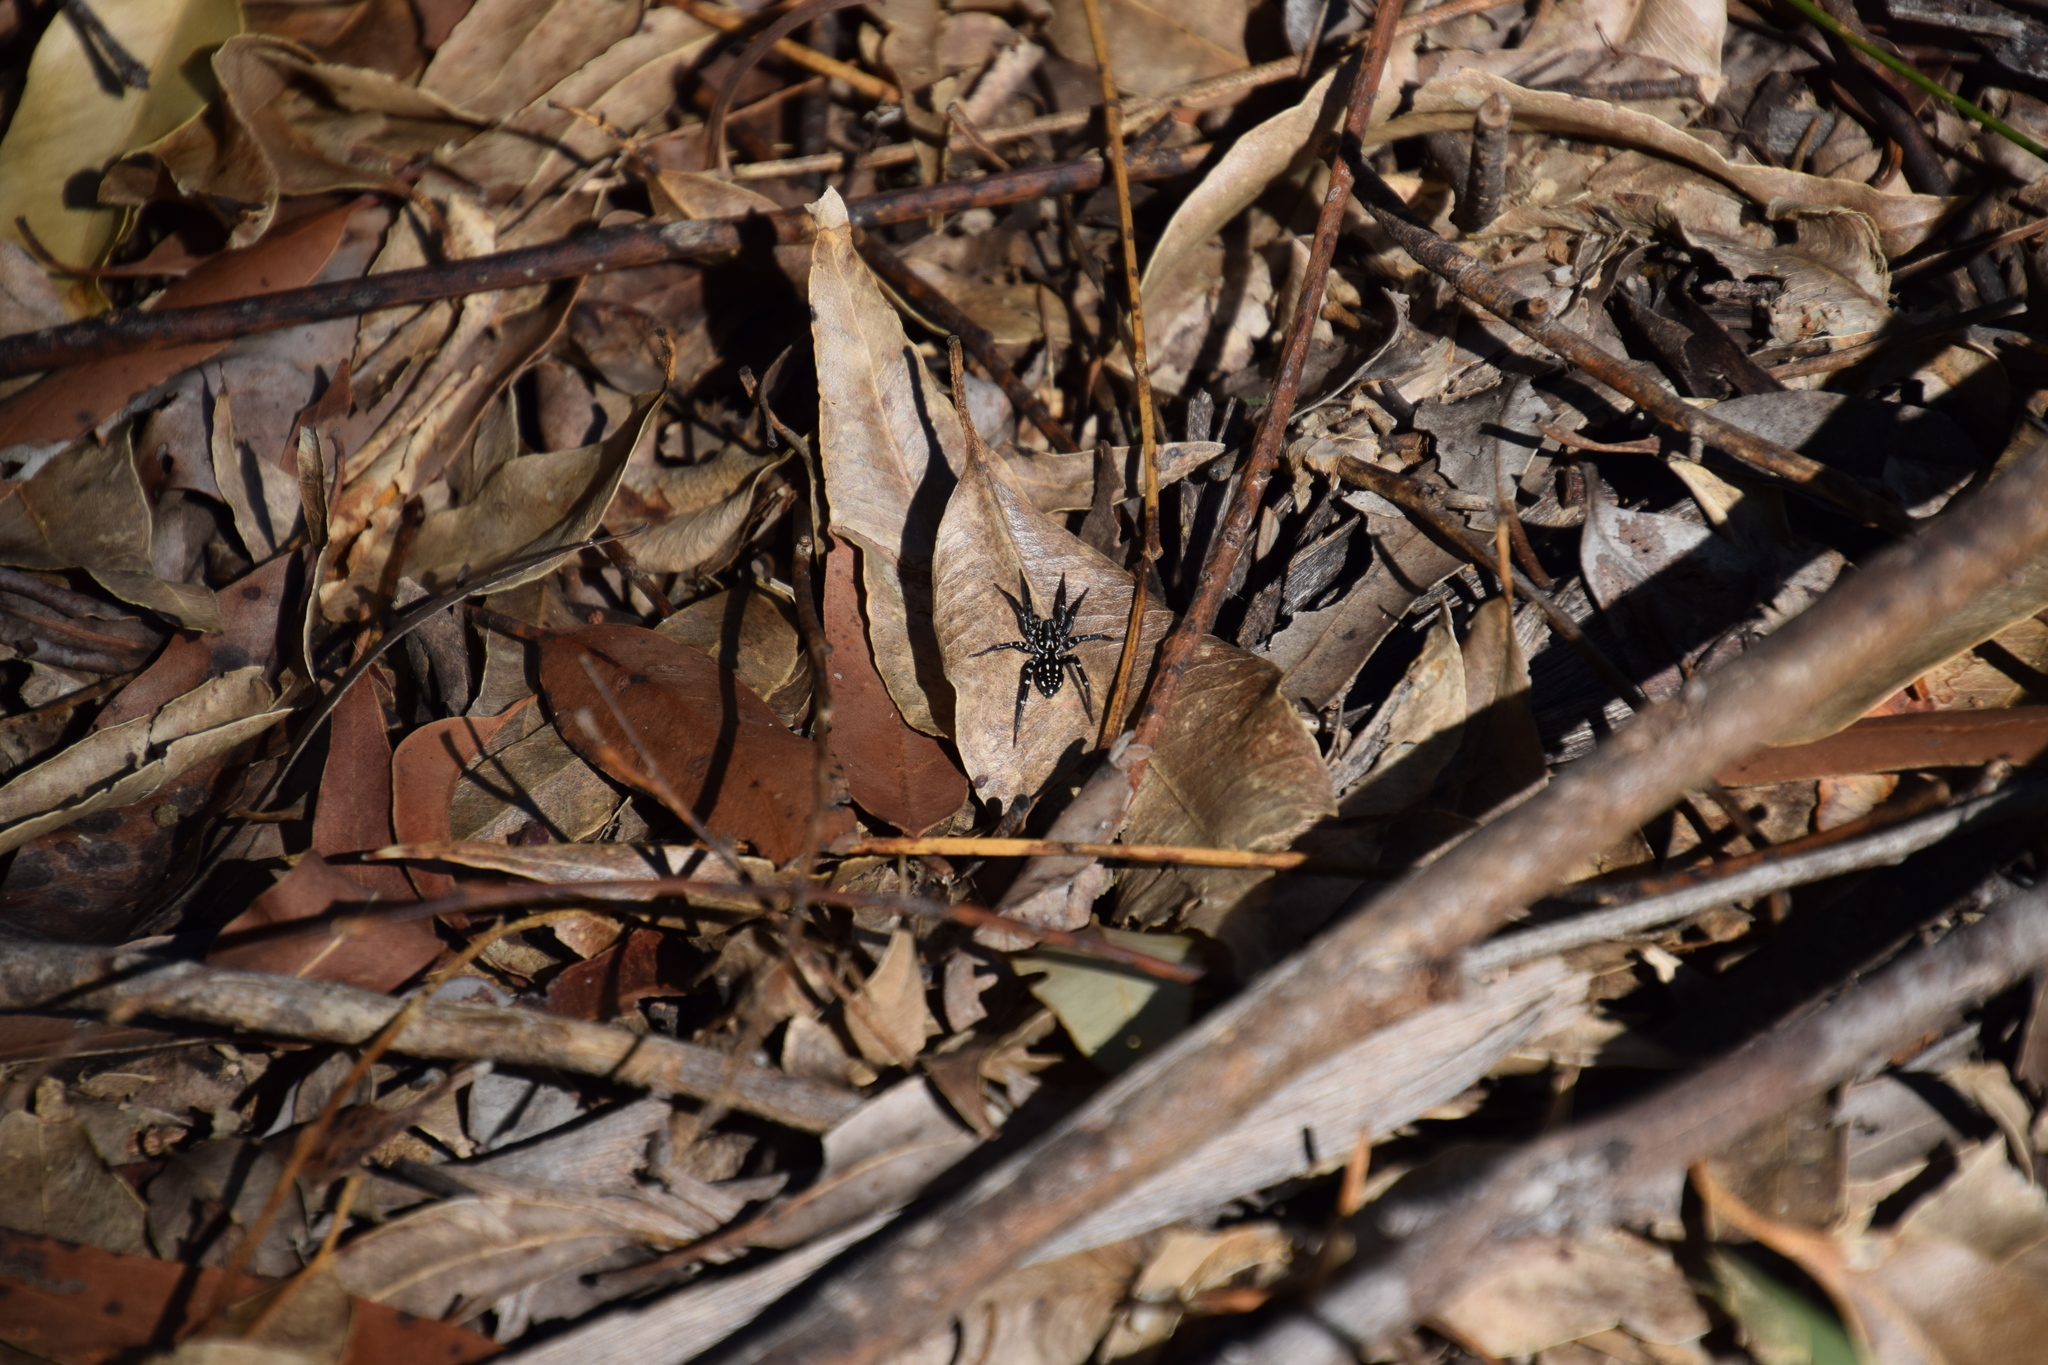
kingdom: Animalia
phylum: Arthropoda
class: Arachnida
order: Araneae
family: Corinnidae
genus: Nyssus
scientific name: Nyssus albopunctatus
